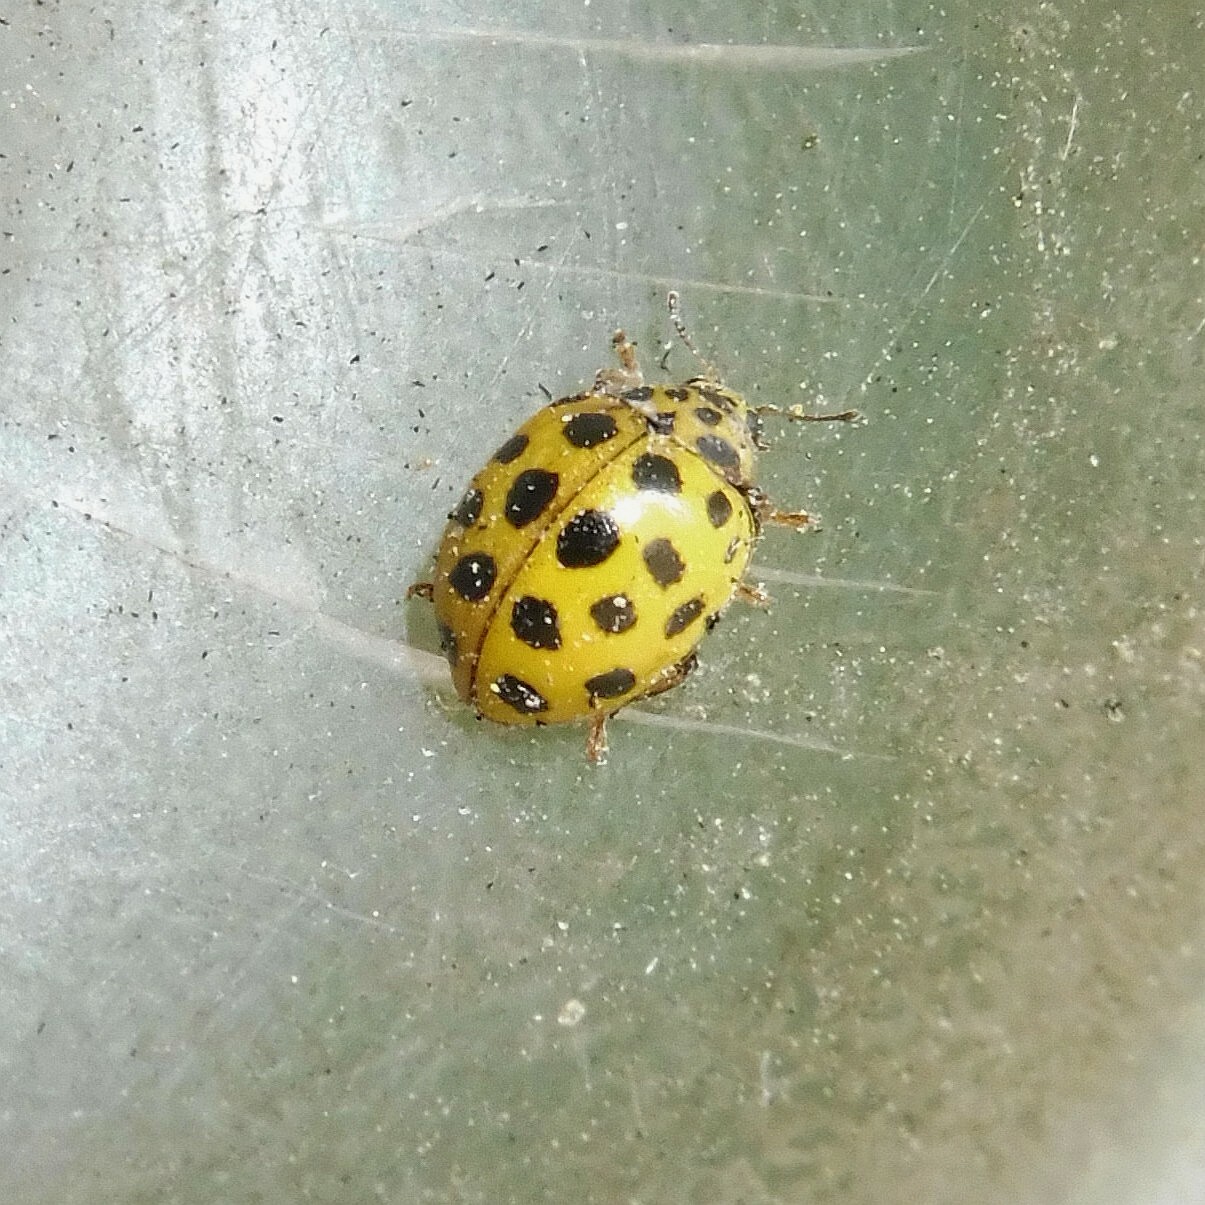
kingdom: Animalia
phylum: Arthropoda
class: Insecta
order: Coleoptera
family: Coccinellidae
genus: Psyllobora
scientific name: Psyllobora vigintiduopunctata
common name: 22-spot ladybird
